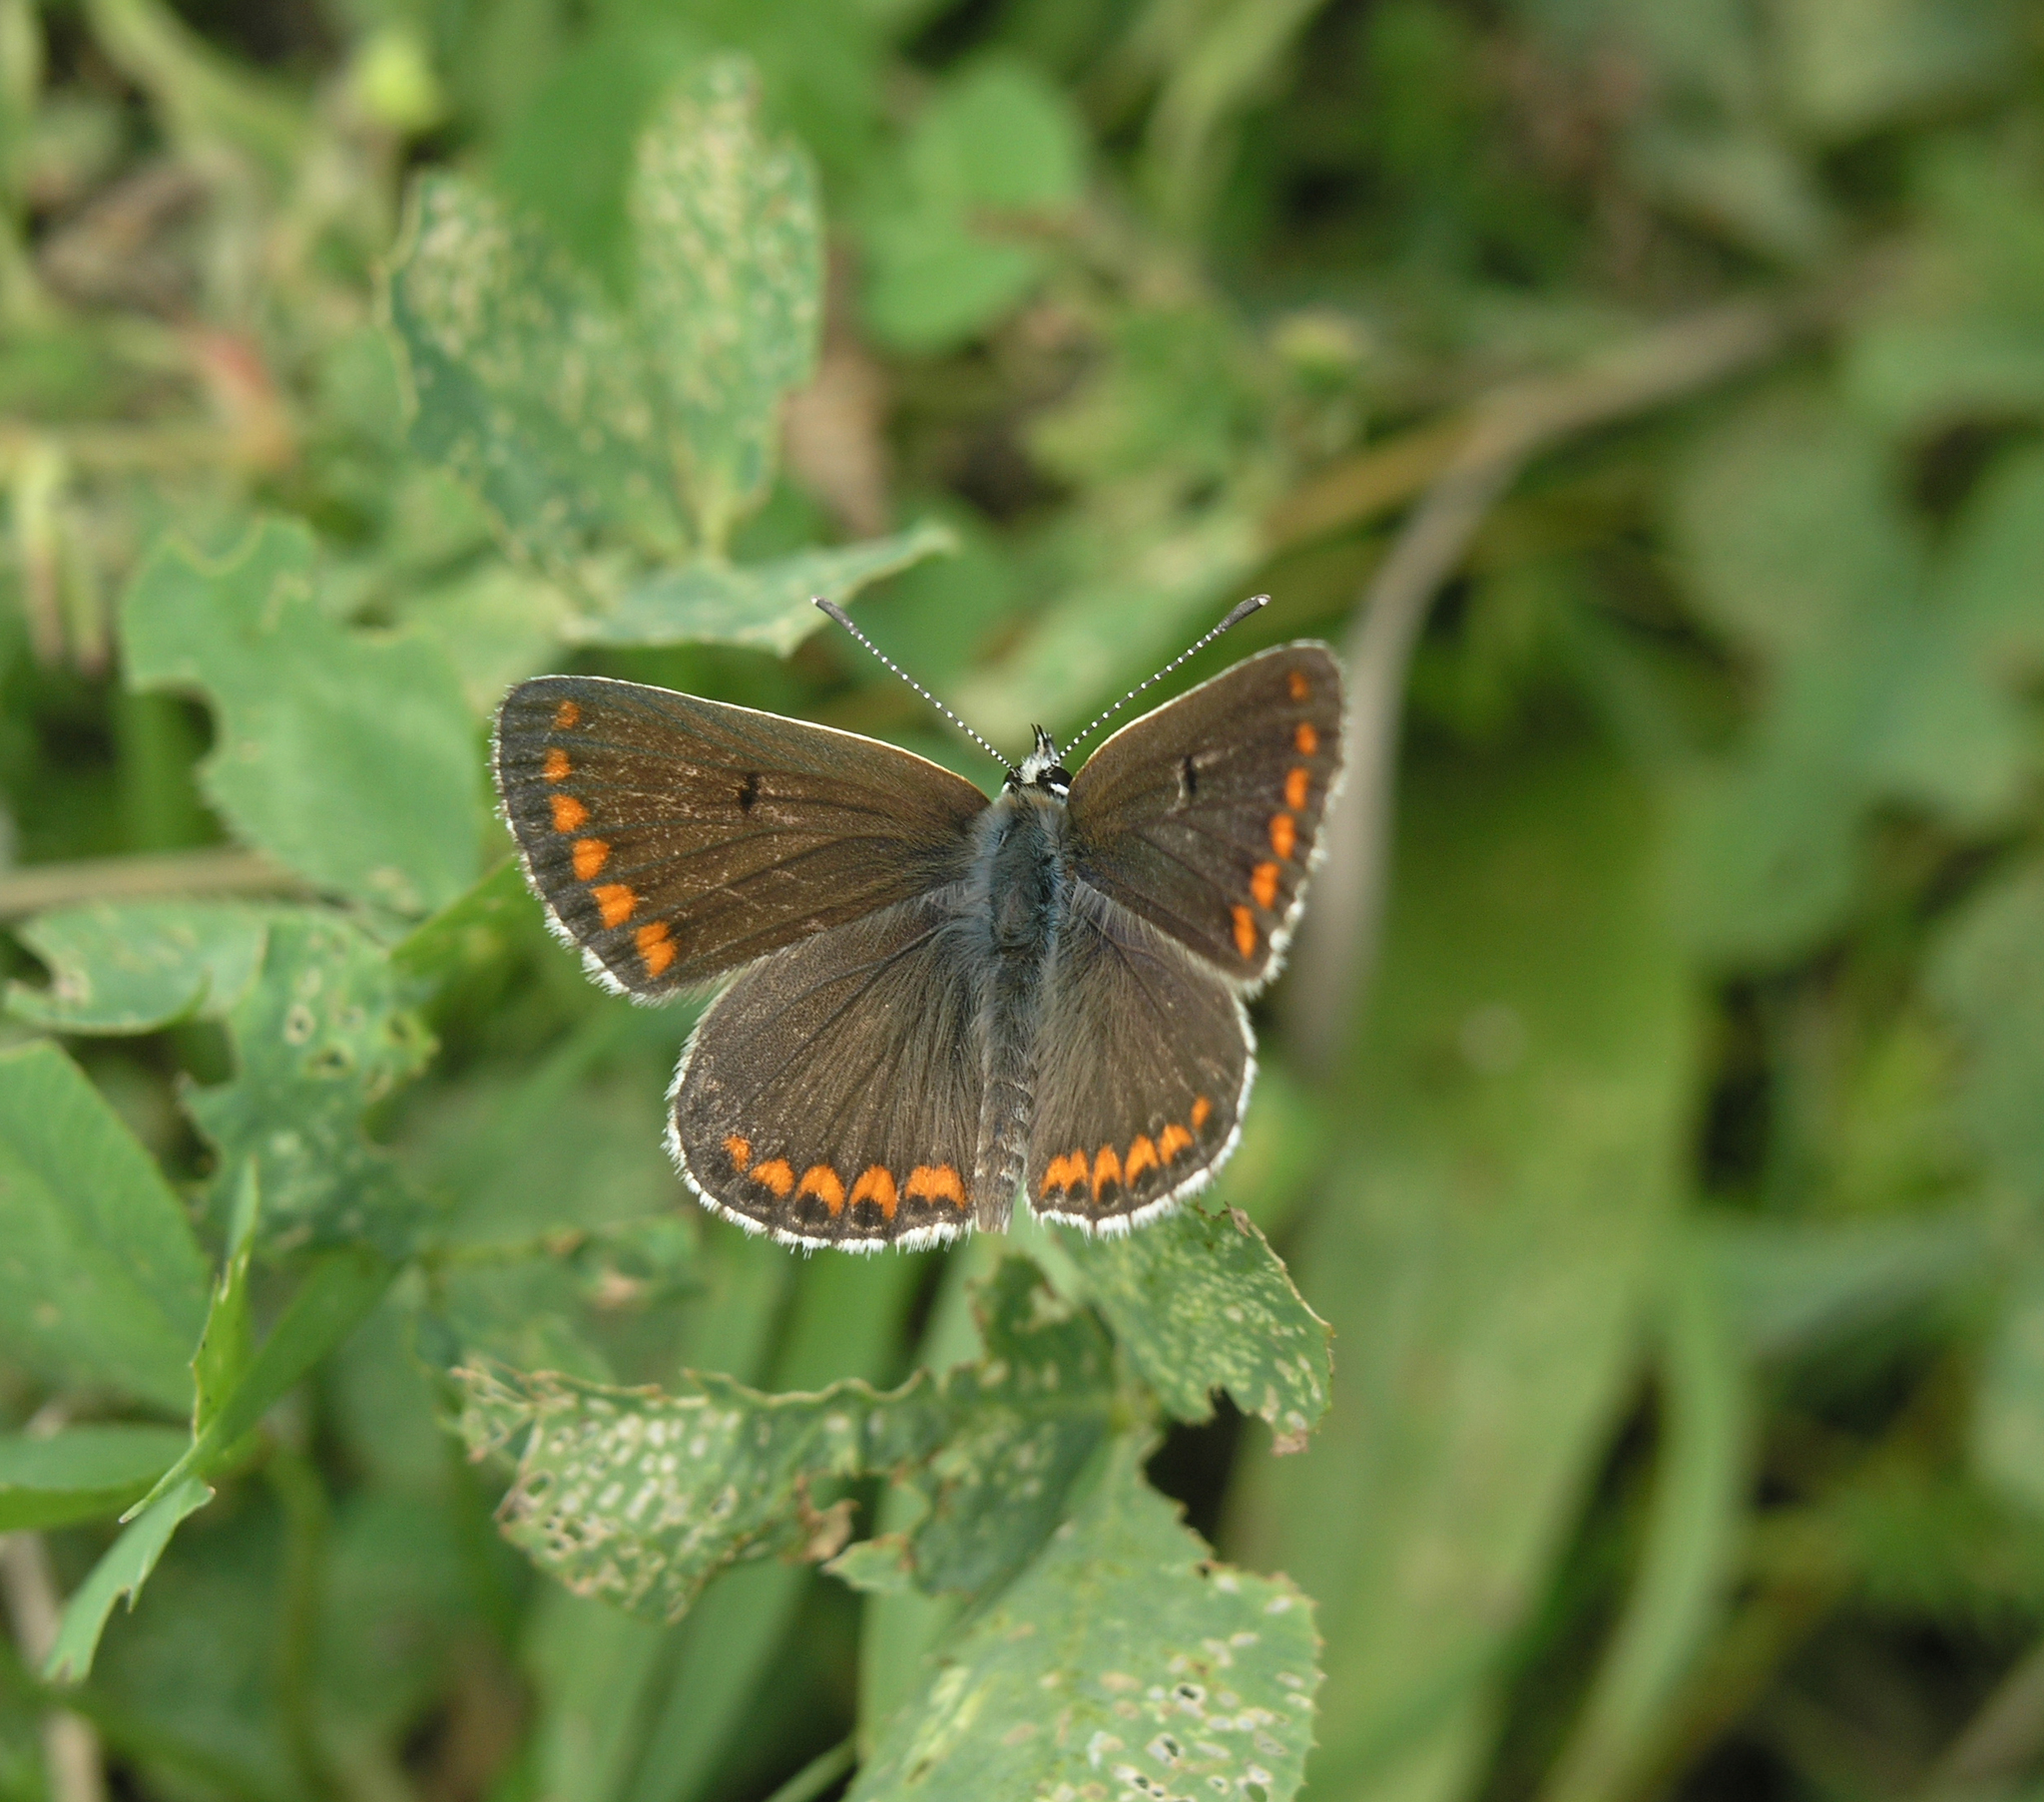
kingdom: Animalia
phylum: Arthropoda
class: Insecta
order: Lepidoptera
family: Lycaenidae
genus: Aricia
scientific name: Aricia agestis
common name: Brown argus
